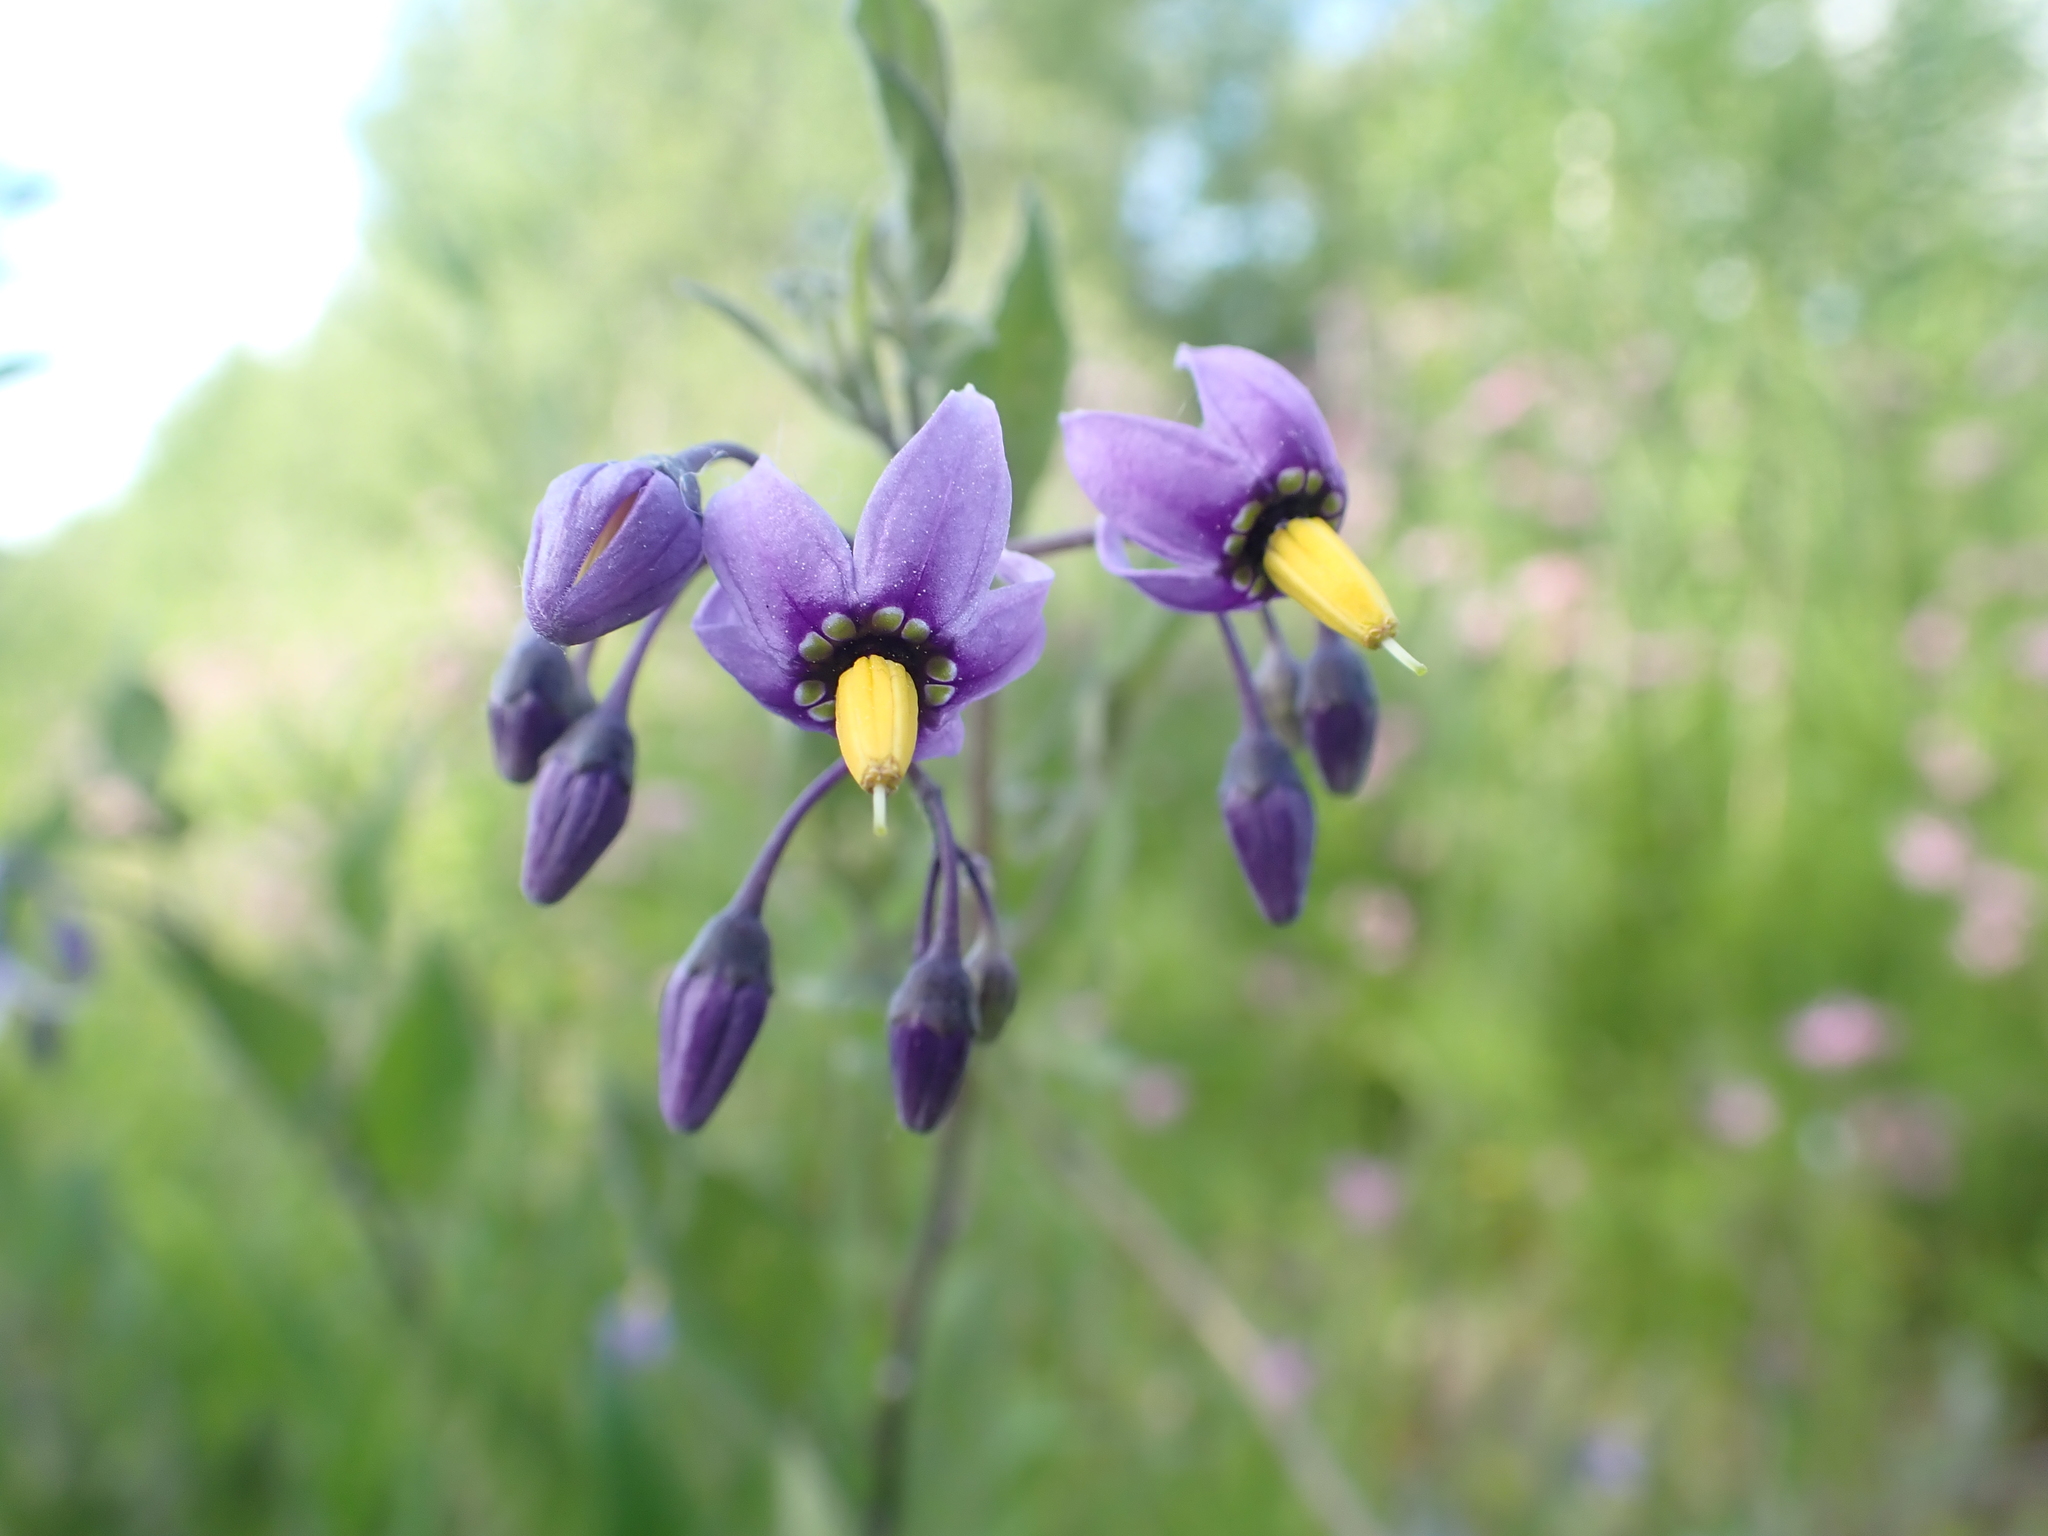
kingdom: Plantae
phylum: Tracheophyta
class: Magnoliopsida
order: Solanales
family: Solanaceae
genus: Solanum
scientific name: Solanum dulcamara
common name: Climbing nightshade
